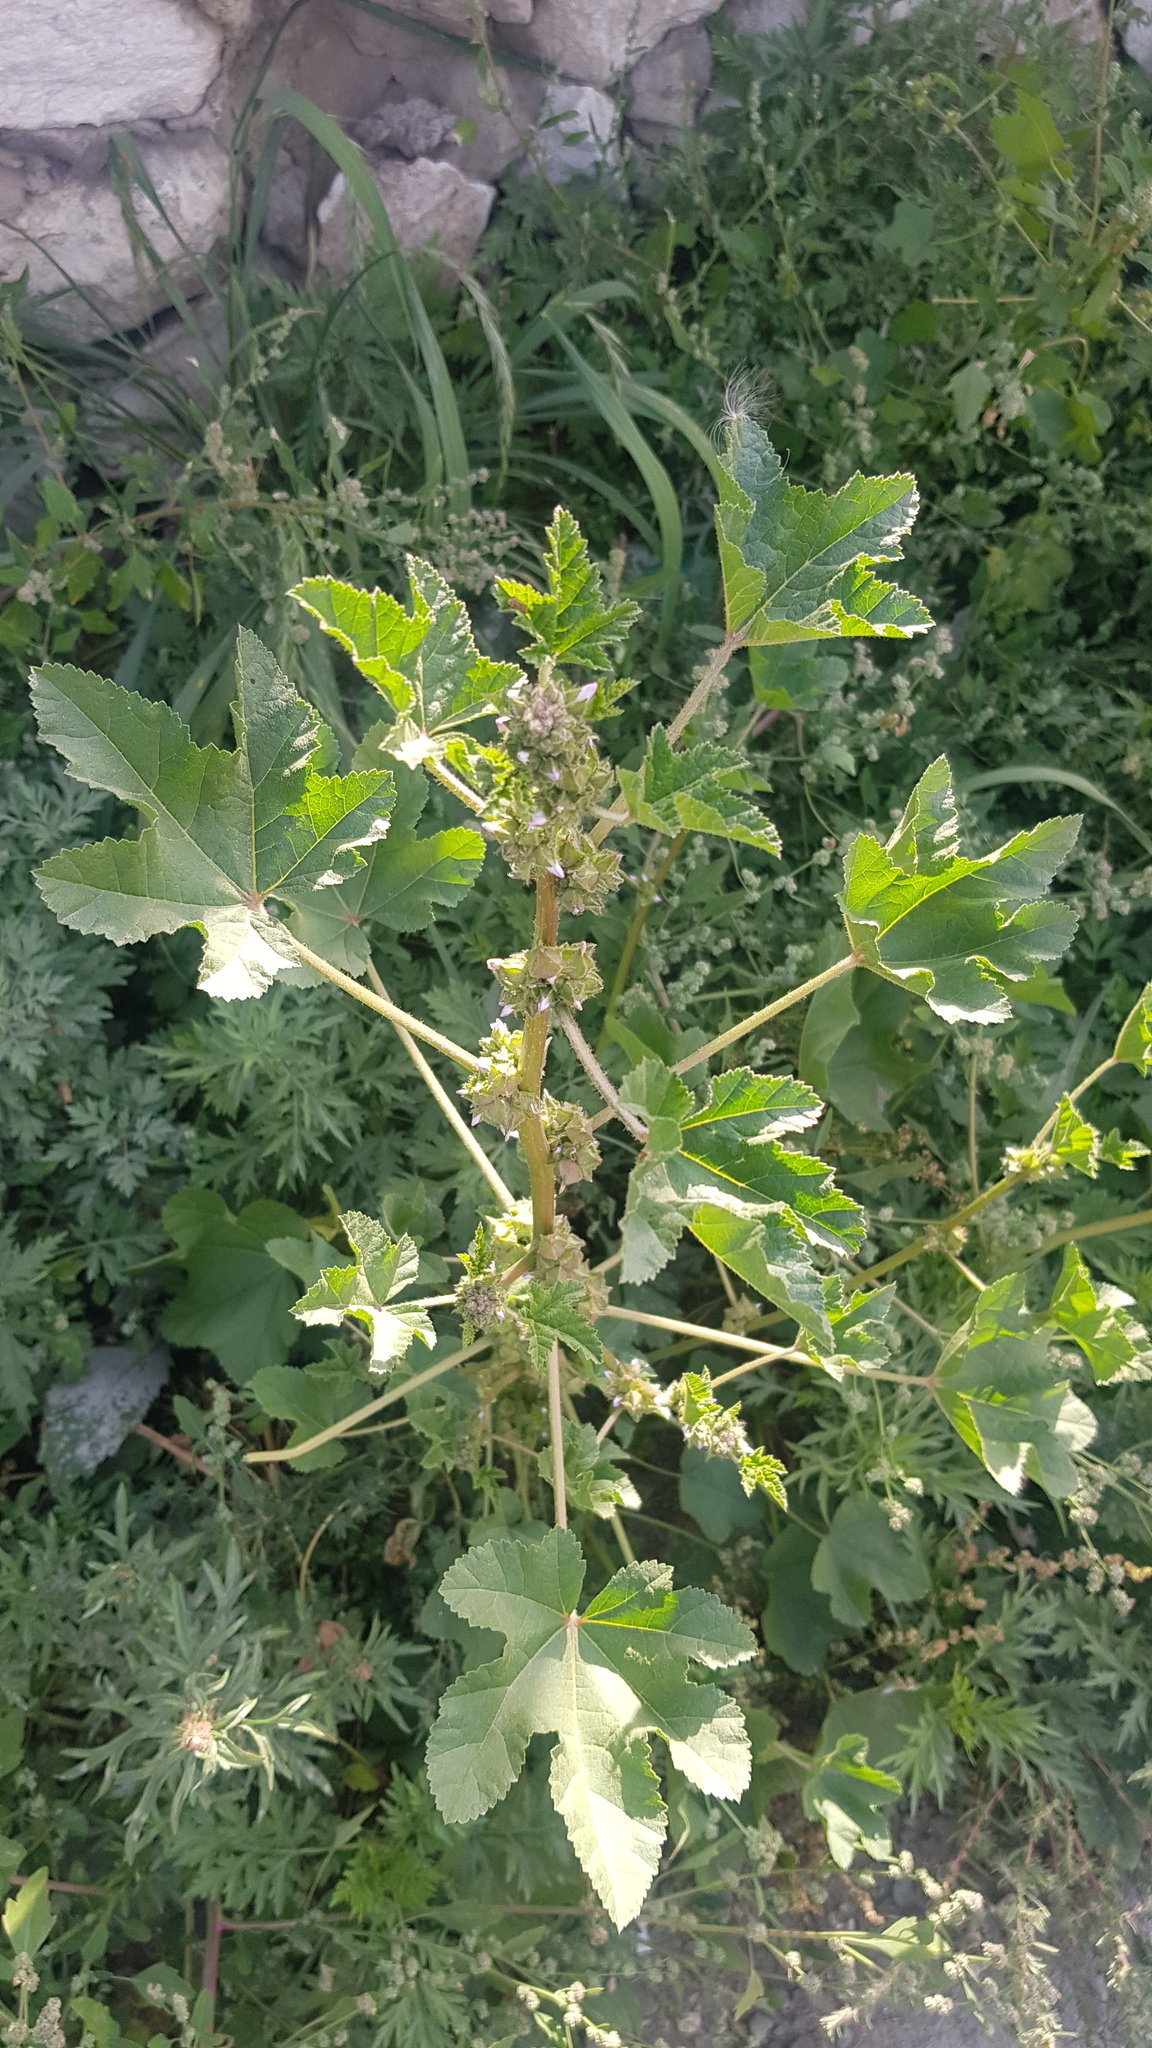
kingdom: Plantae
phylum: Tracheophyta
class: Magnoliopsida
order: Malvales
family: Malvaceae
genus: Malva
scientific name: Malva verticillata
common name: Chinese mallow
